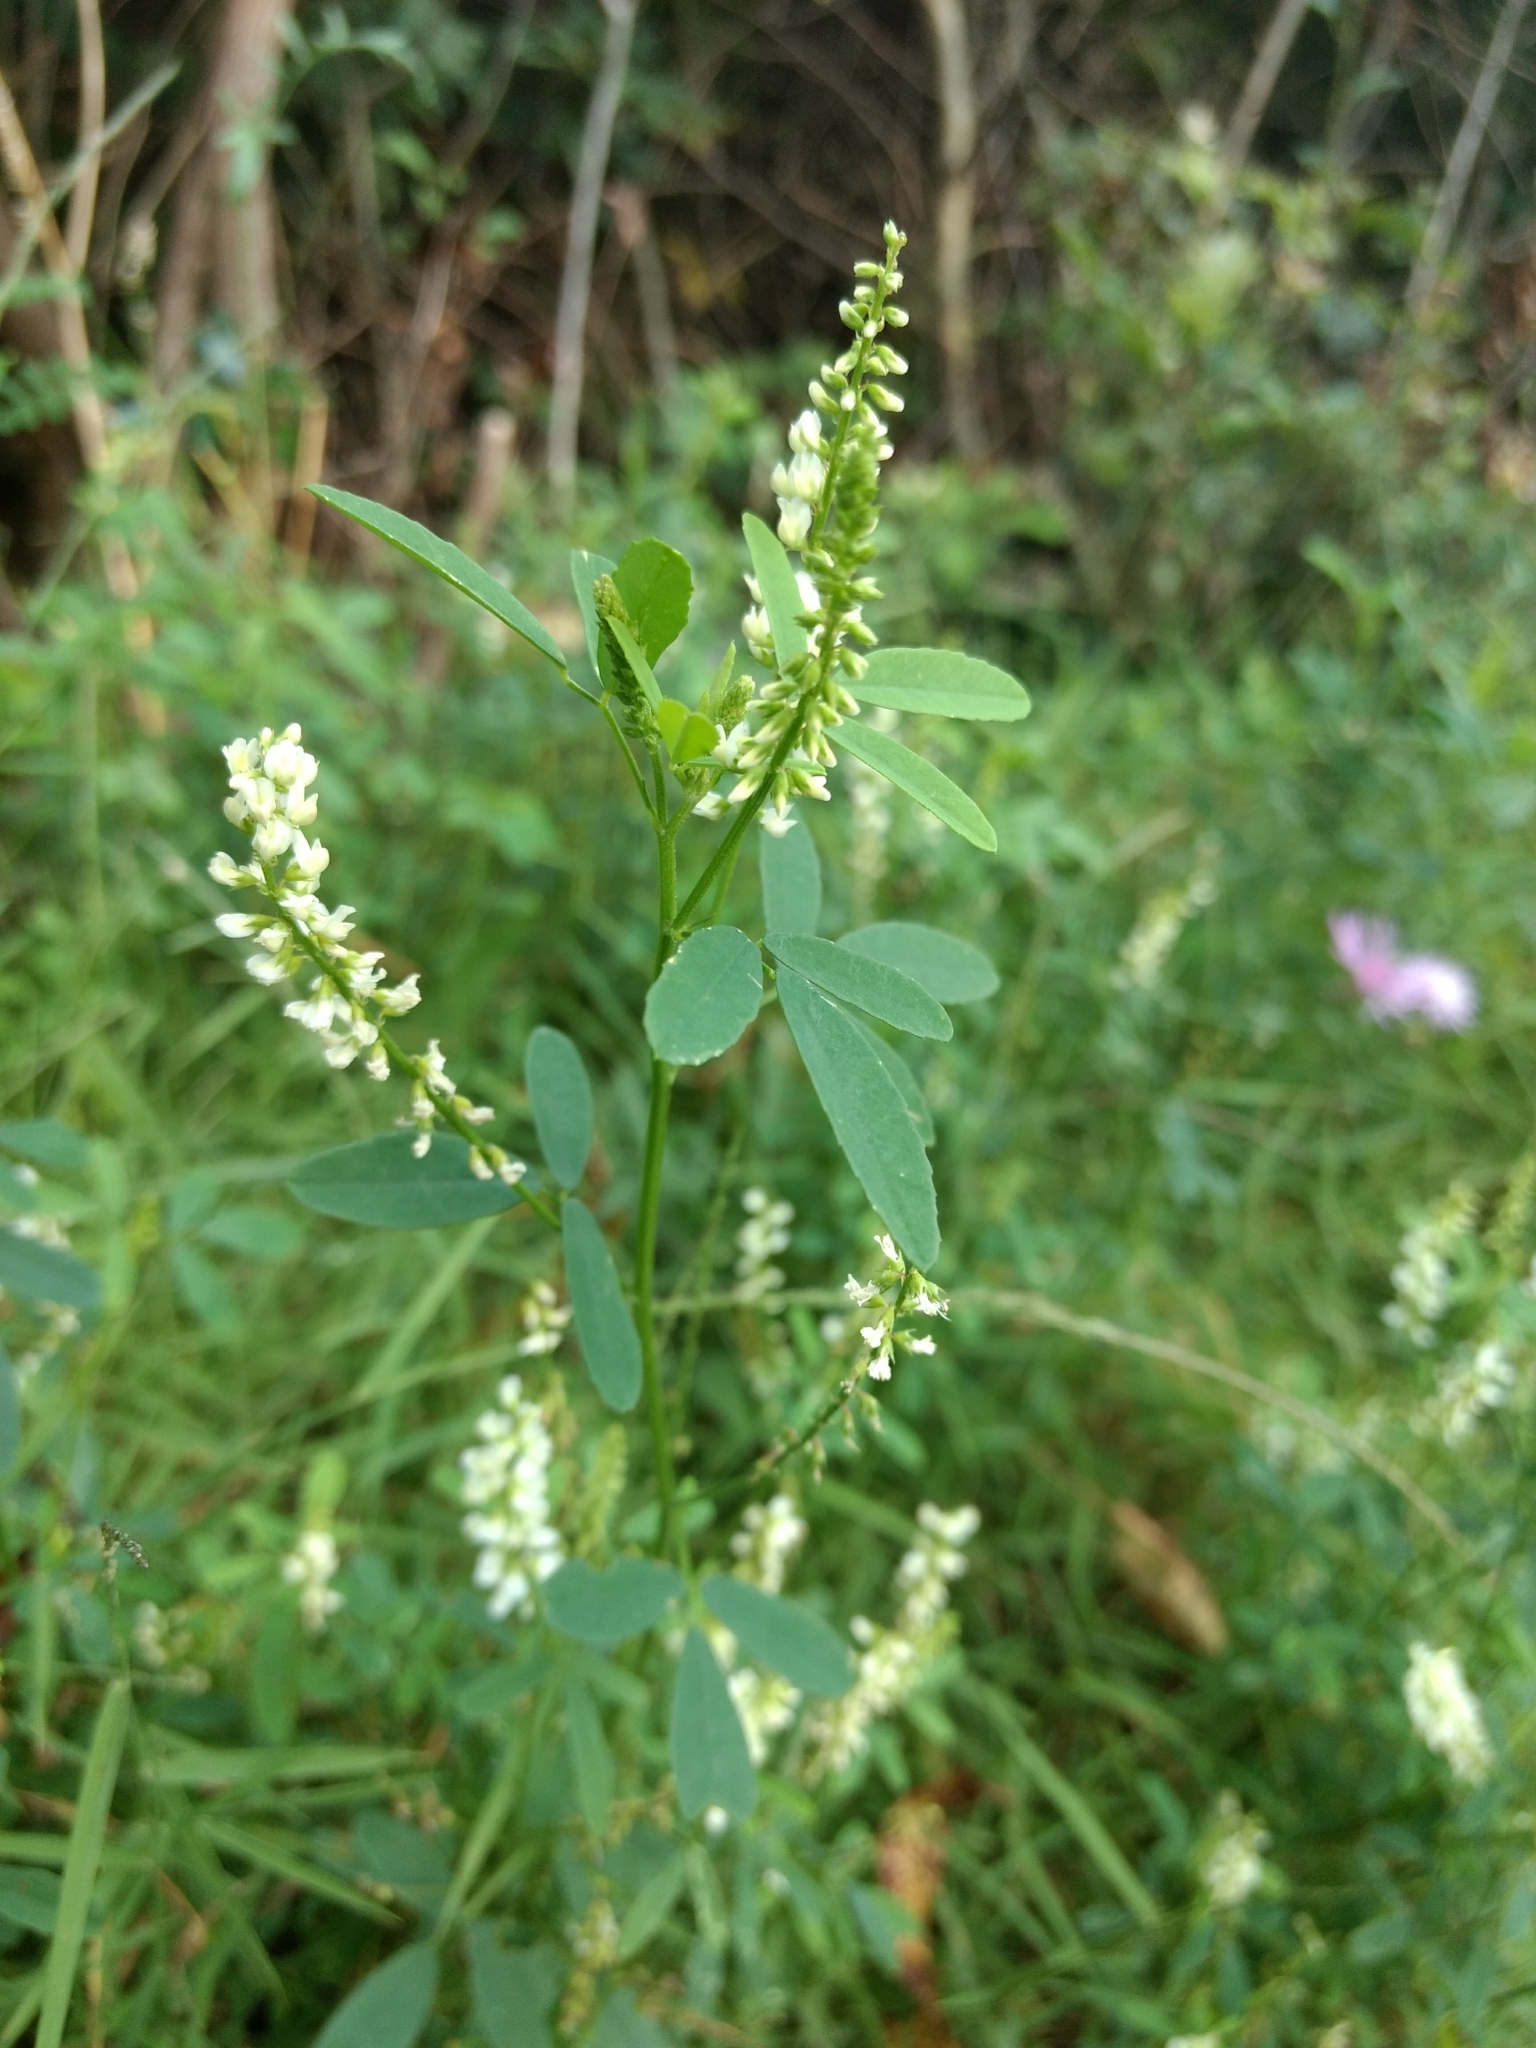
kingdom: Plantae
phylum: Tracheophyta
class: Magnoliopsida
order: Fabales
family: Fabaceae
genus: Melilotus
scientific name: Melilotus albus
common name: White melilot
